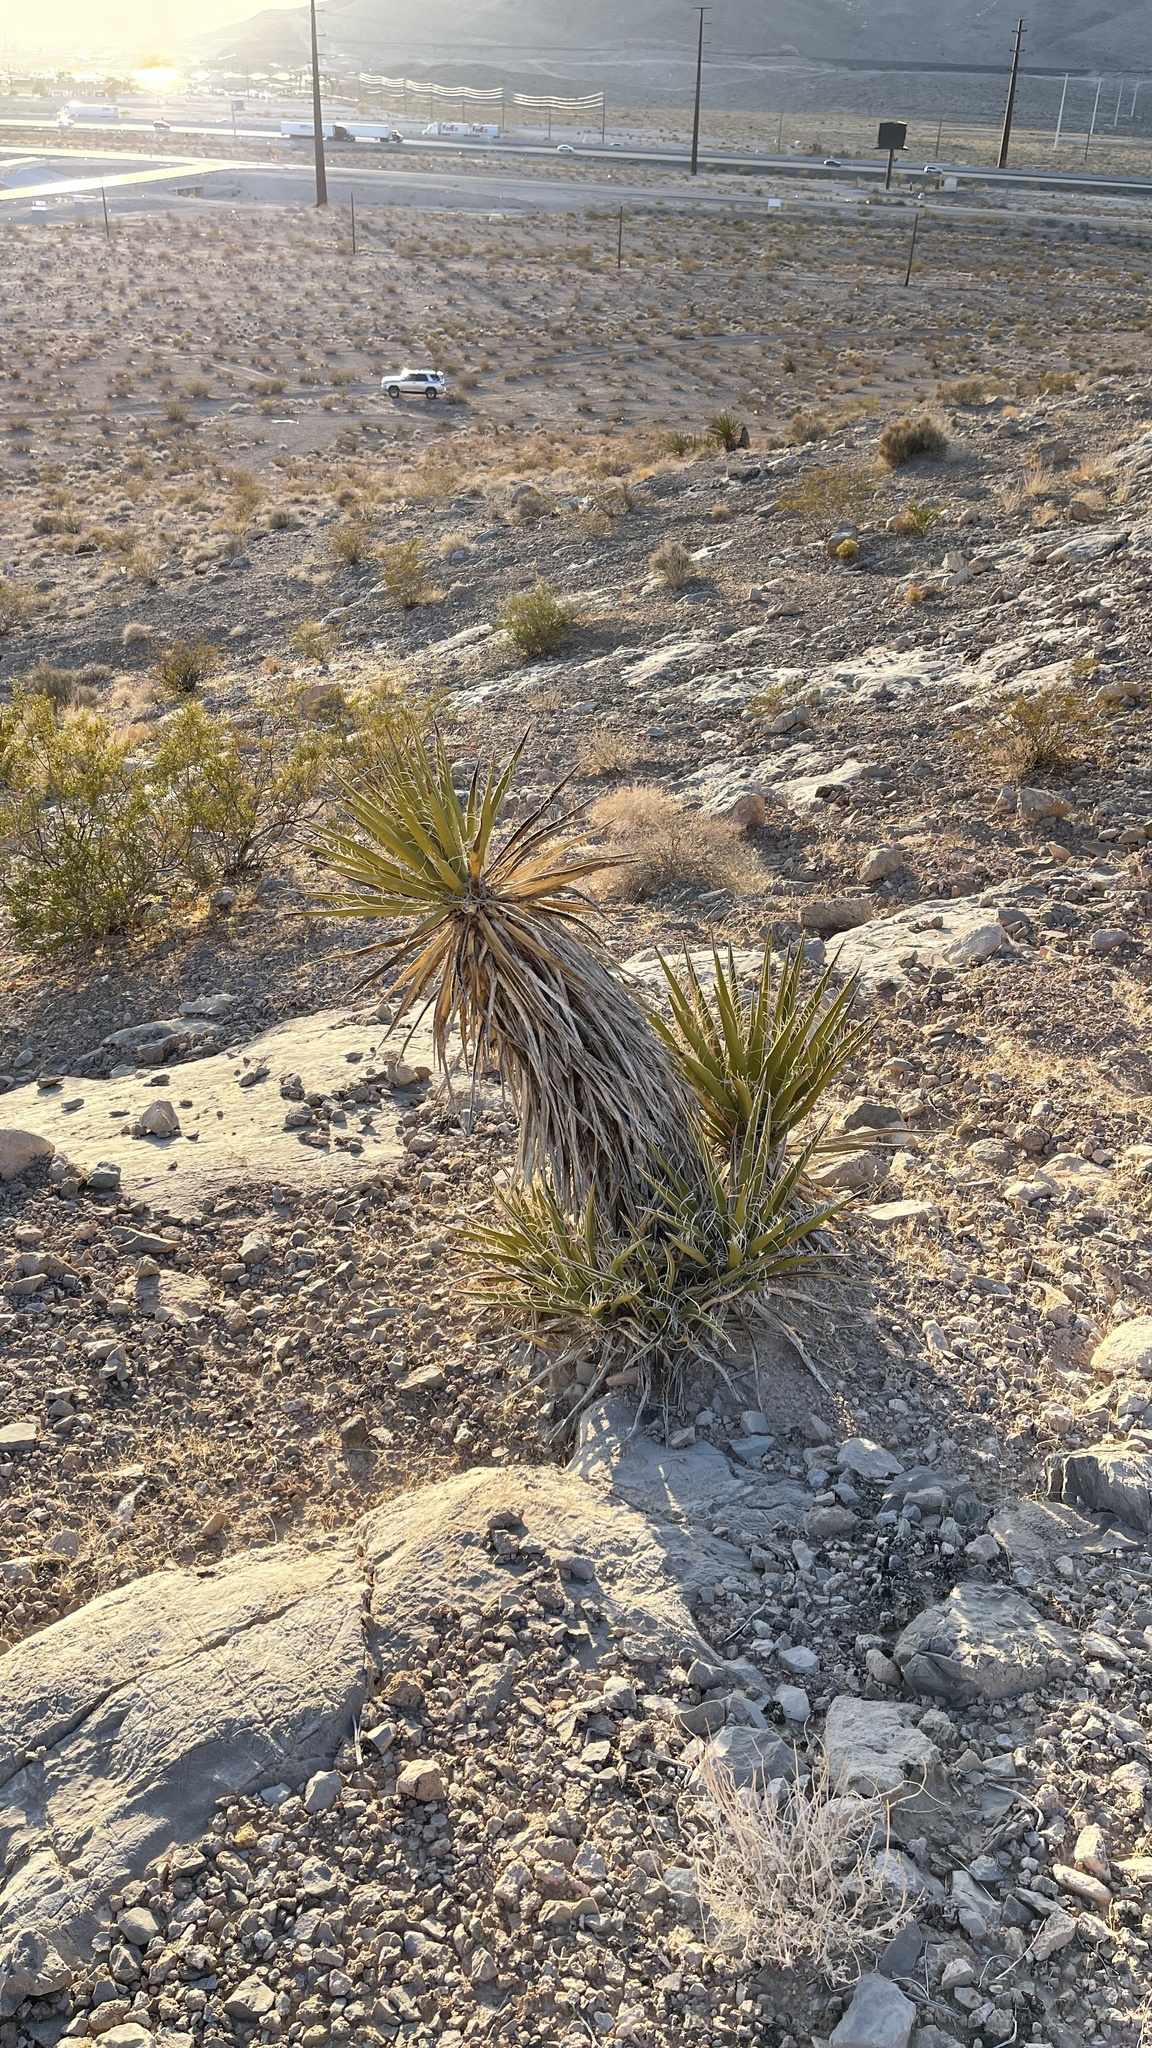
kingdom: Plantae
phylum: Tracheophyta
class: Liliopsida
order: Asparagales
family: Asparagaceae
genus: Yucca
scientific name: Yucca schidigera
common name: Mojave yucca
